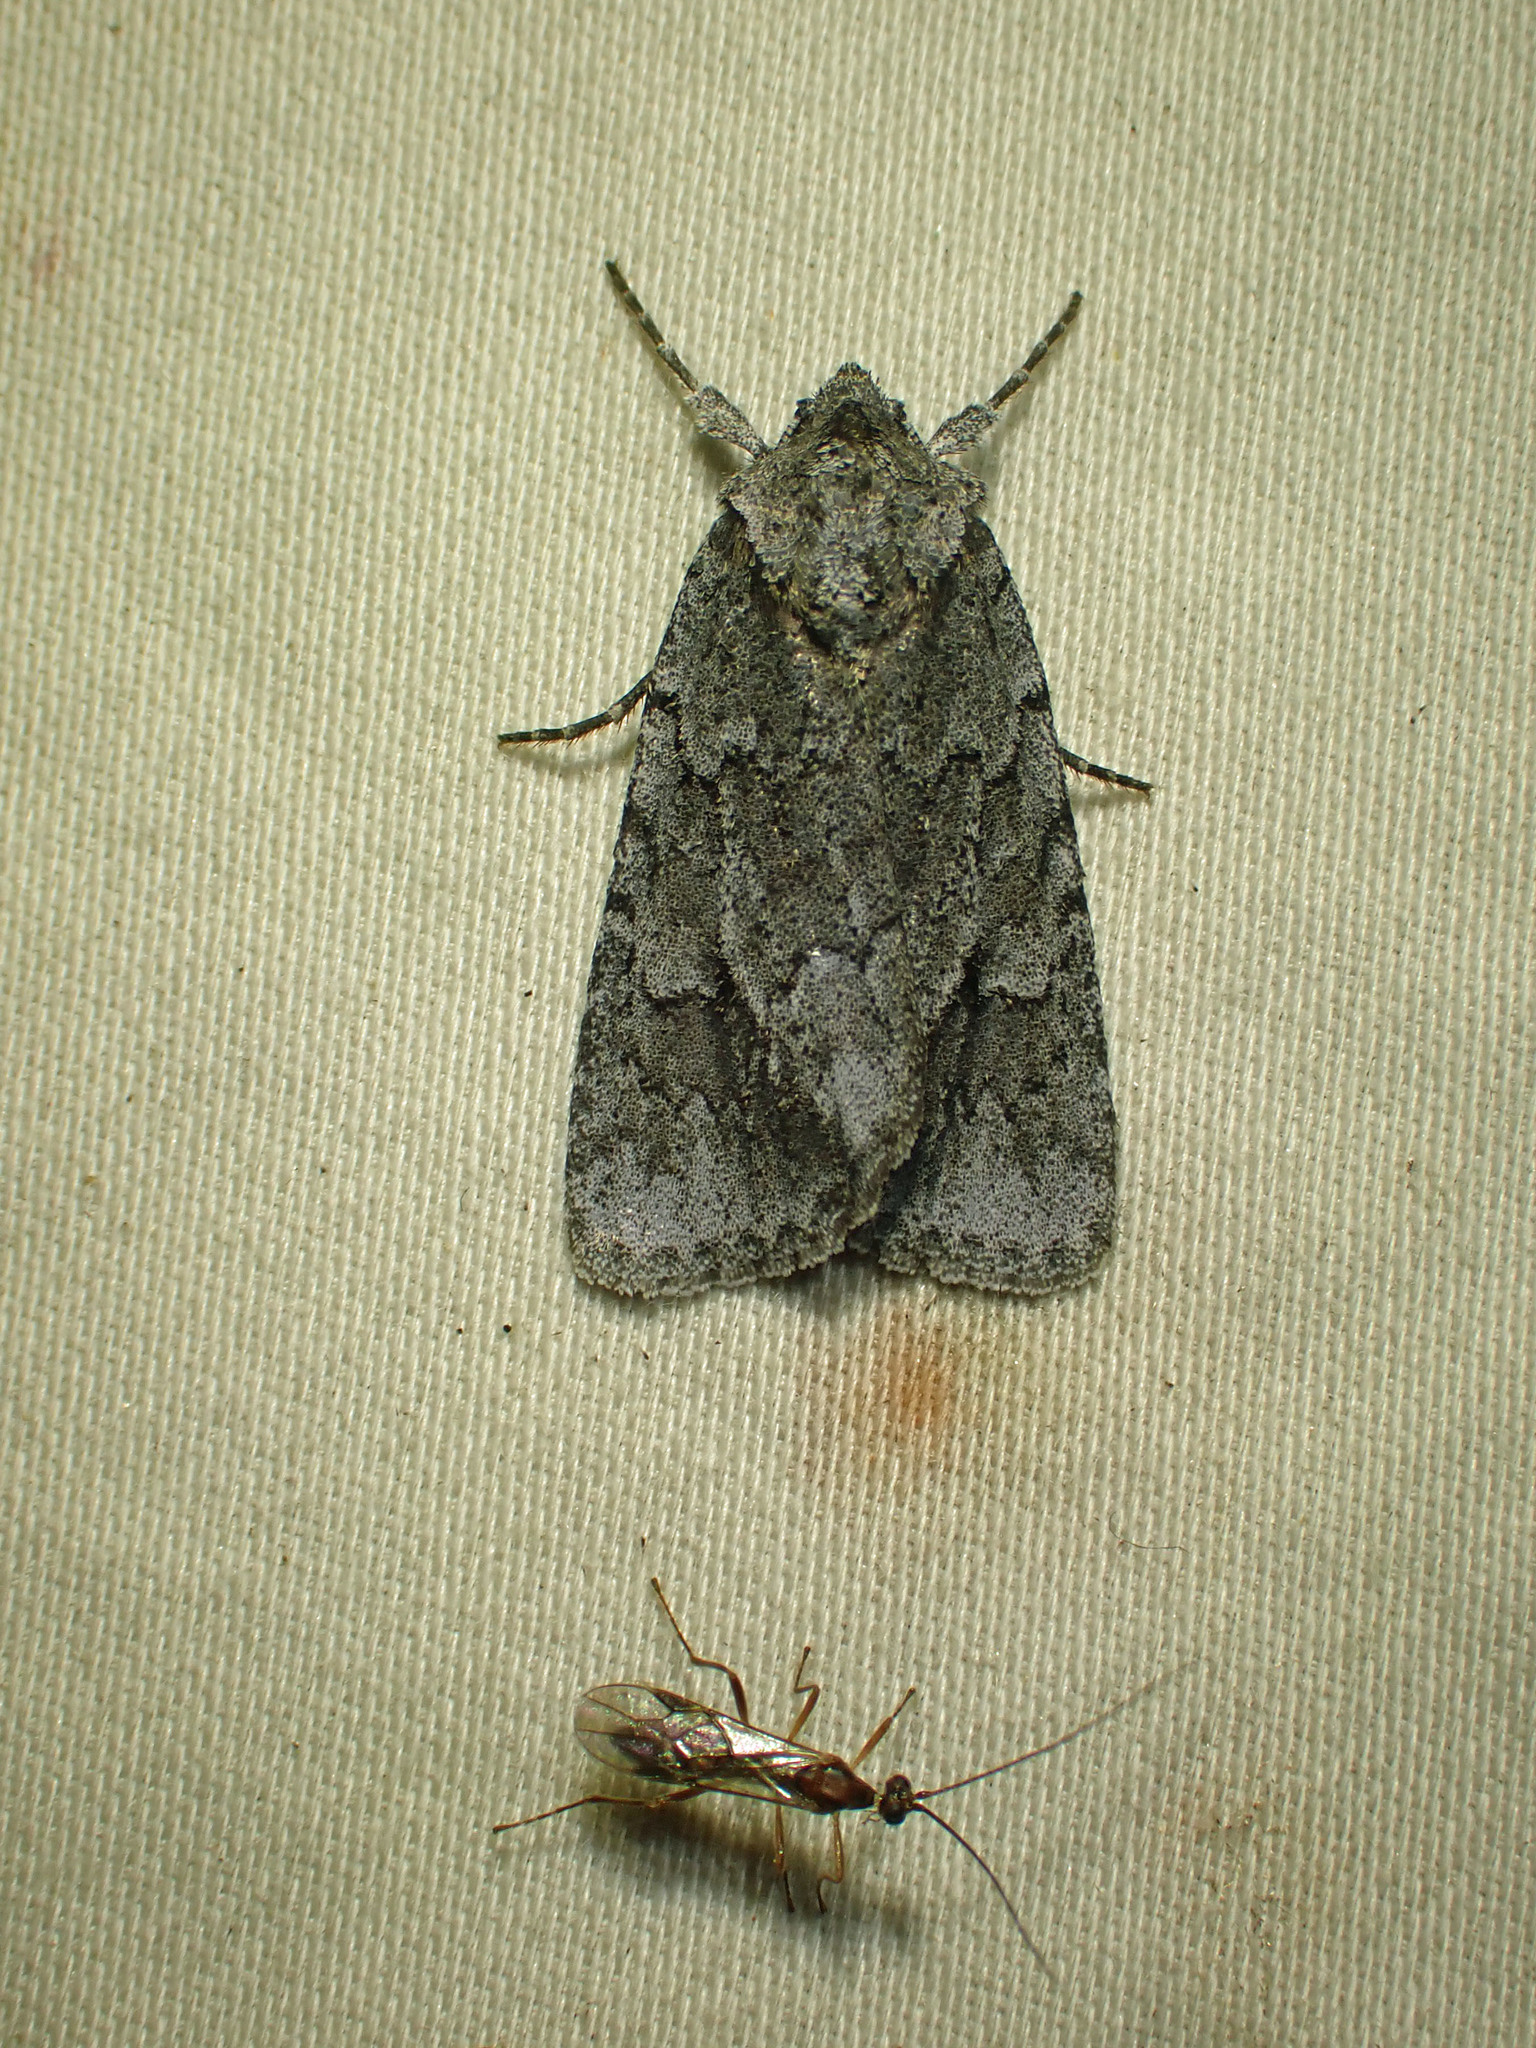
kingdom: Animalia
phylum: Arthropoda
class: Insecta
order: Lepidoptera
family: Noctuidae
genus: Sympistis
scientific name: Sympistis dentata
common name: Blueberry sallow
